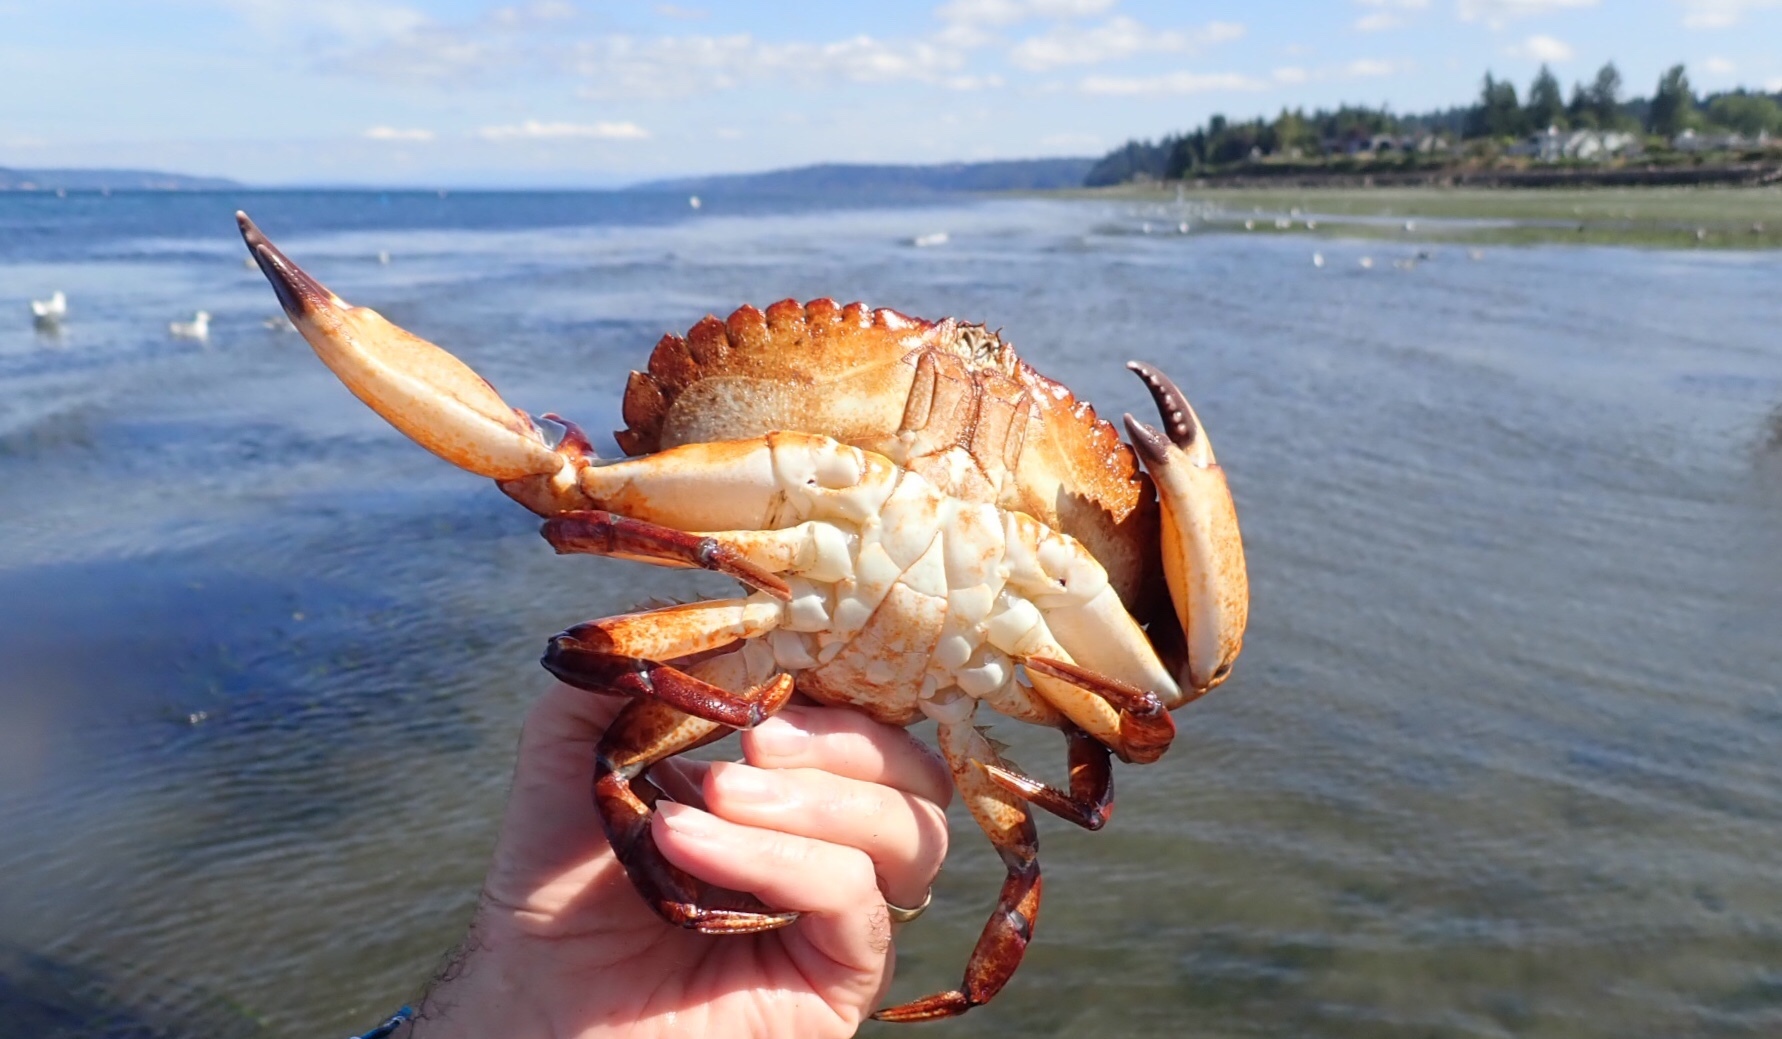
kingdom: Animalia
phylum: Arthropoda
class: Malacostraca
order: Decapoda
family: Cancridae
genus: Cancer
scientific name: Cancer productus
